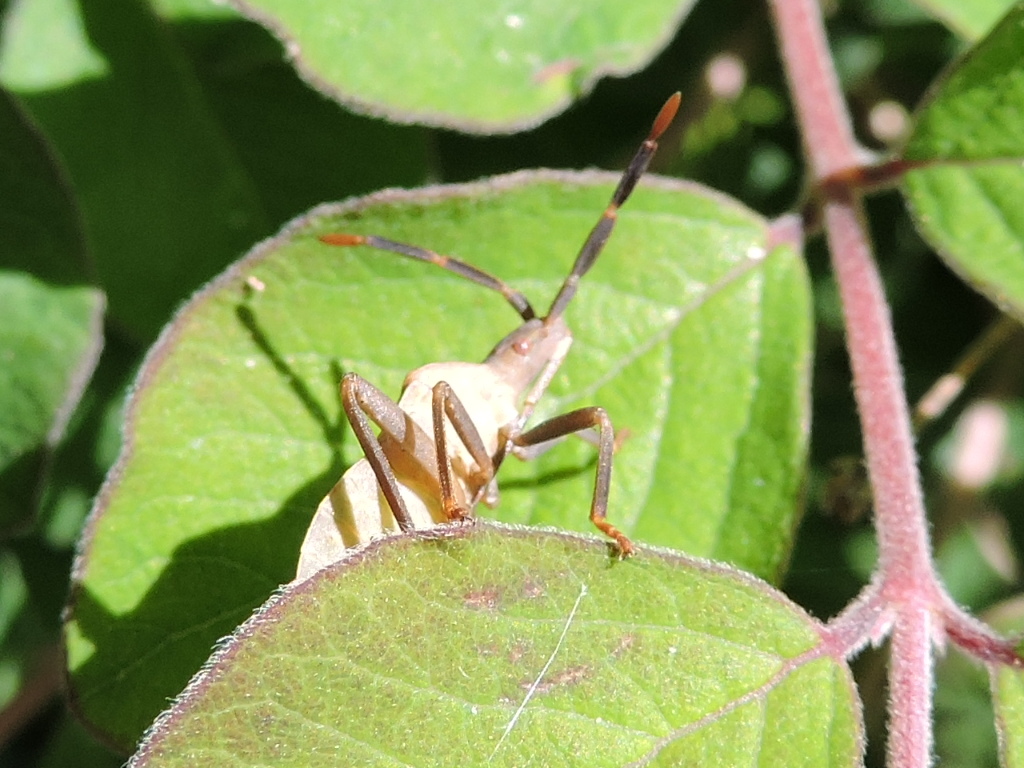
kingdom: Animalia
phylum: Arthropoda
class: Insecta
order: Hemiptera
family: Coreidae
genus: Chelinidea
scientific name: Chelinidea vittiger
